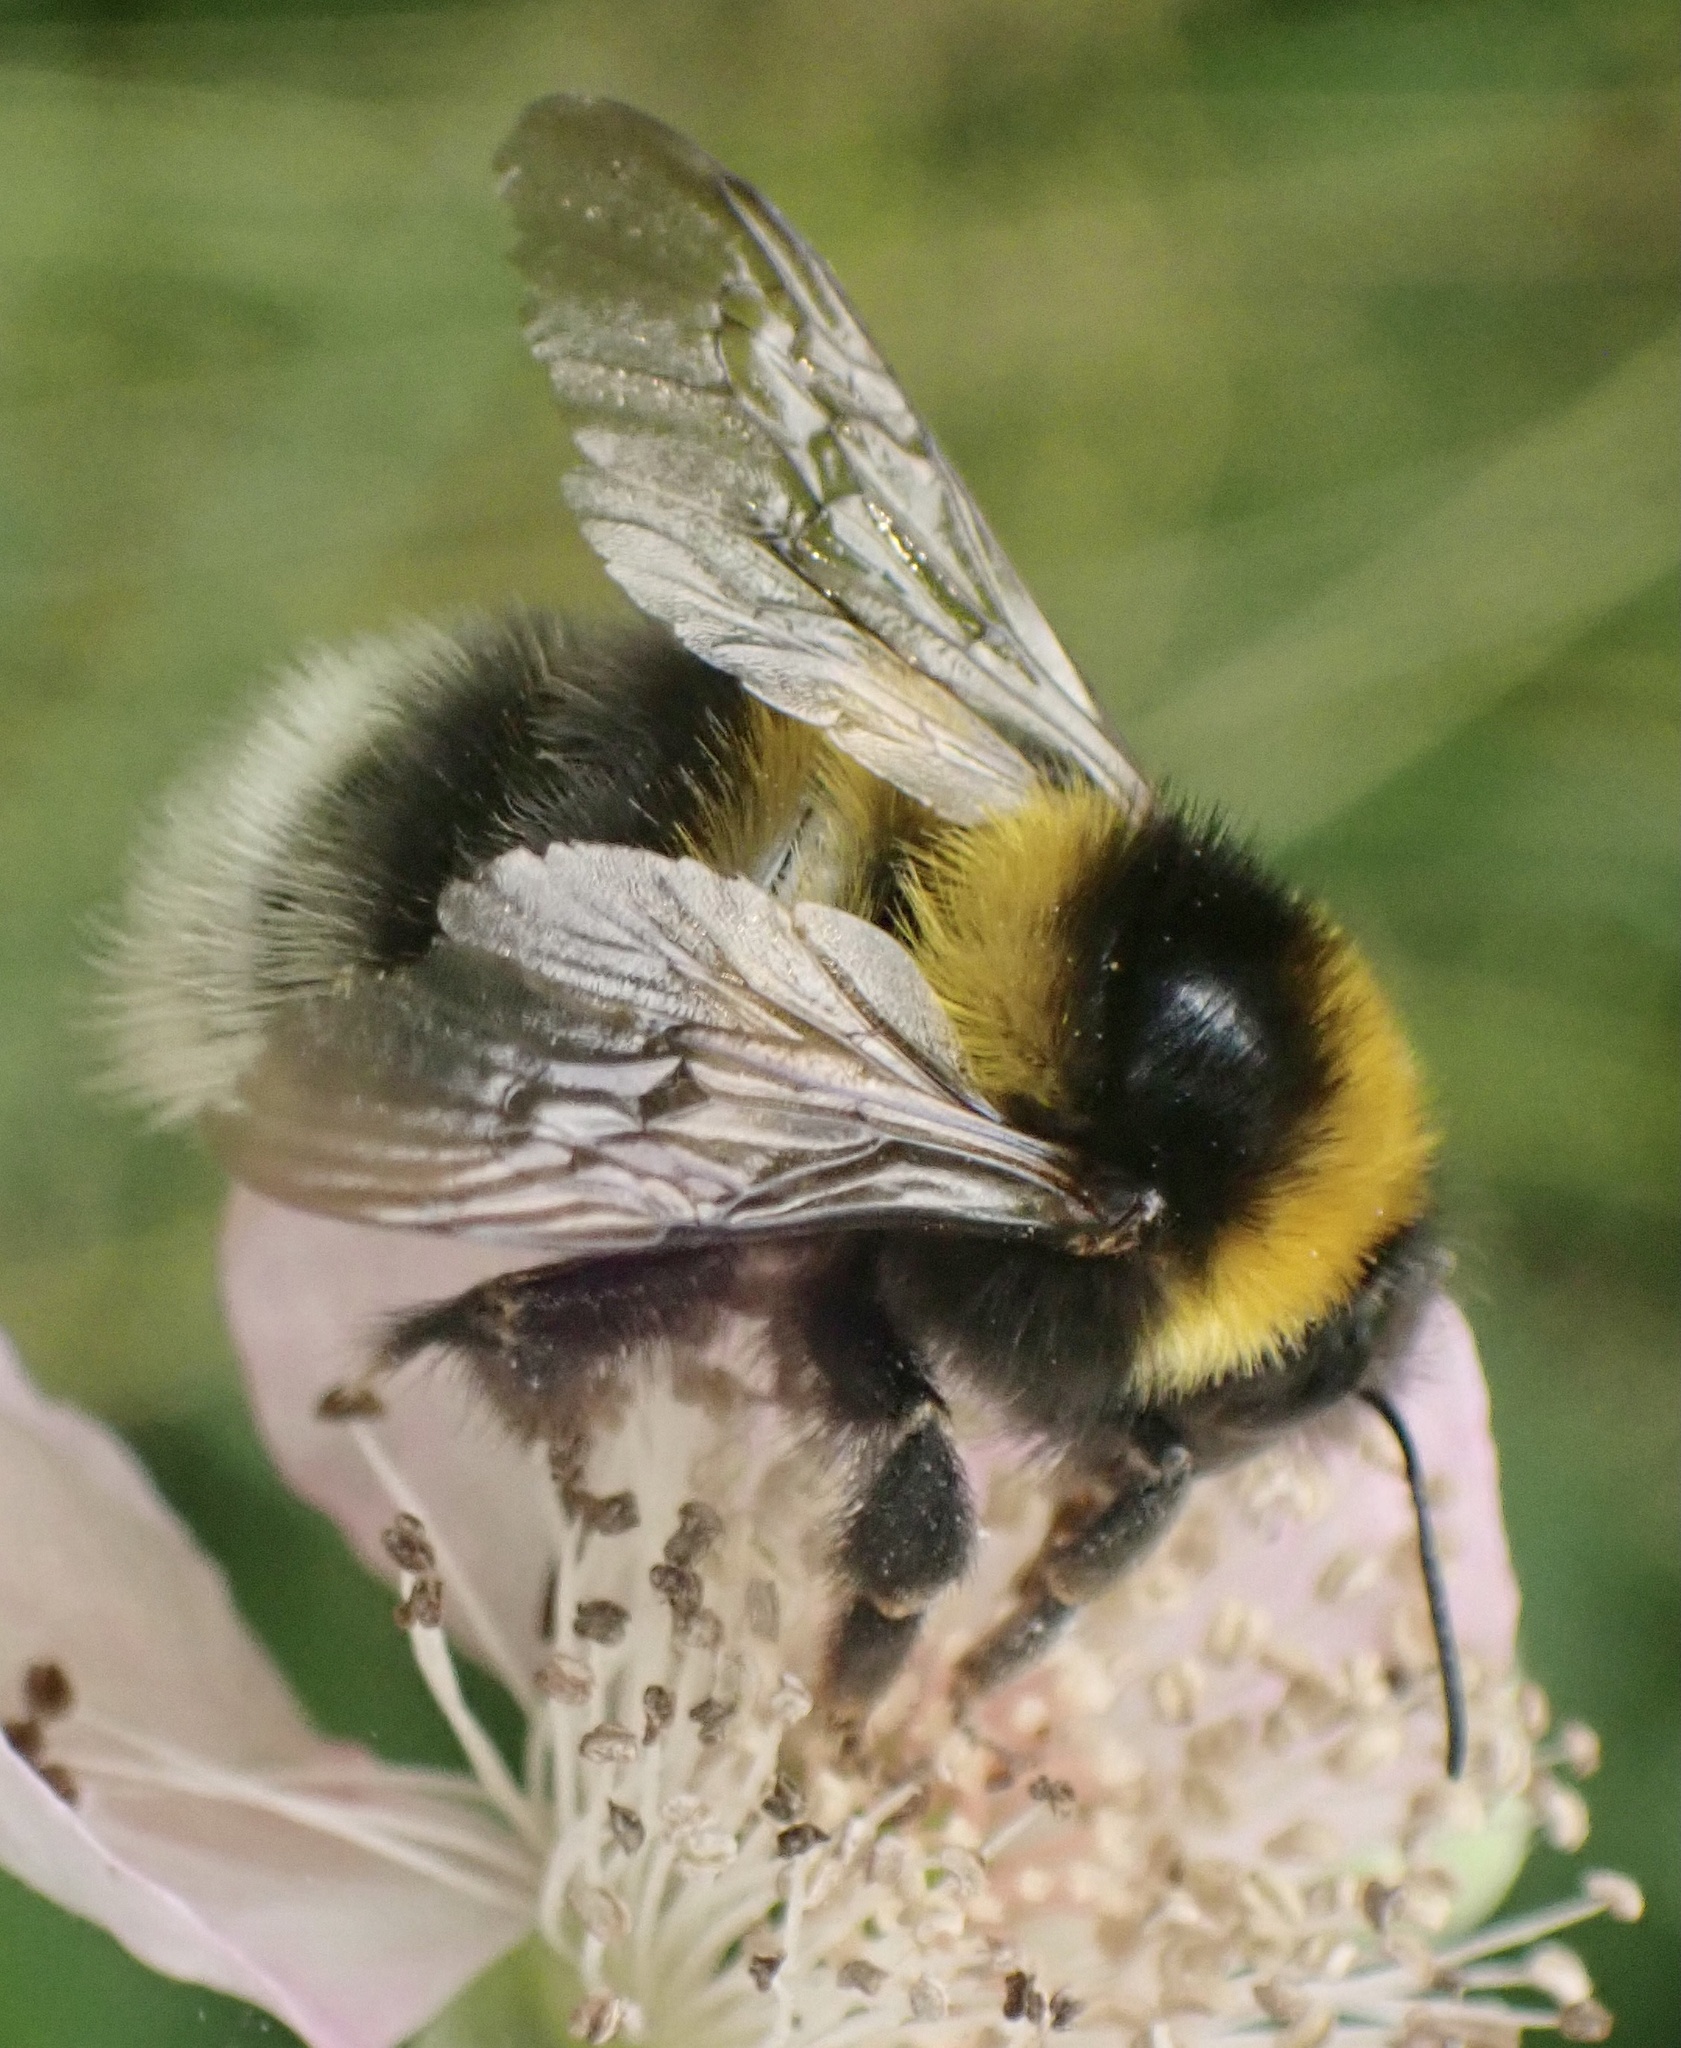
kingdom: Animalia
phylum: Arthropoda
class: Insecta
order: Hymenoptera
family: Apidae
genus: Bombus
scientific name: Bombus hortorum
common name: Garden bumblebee
